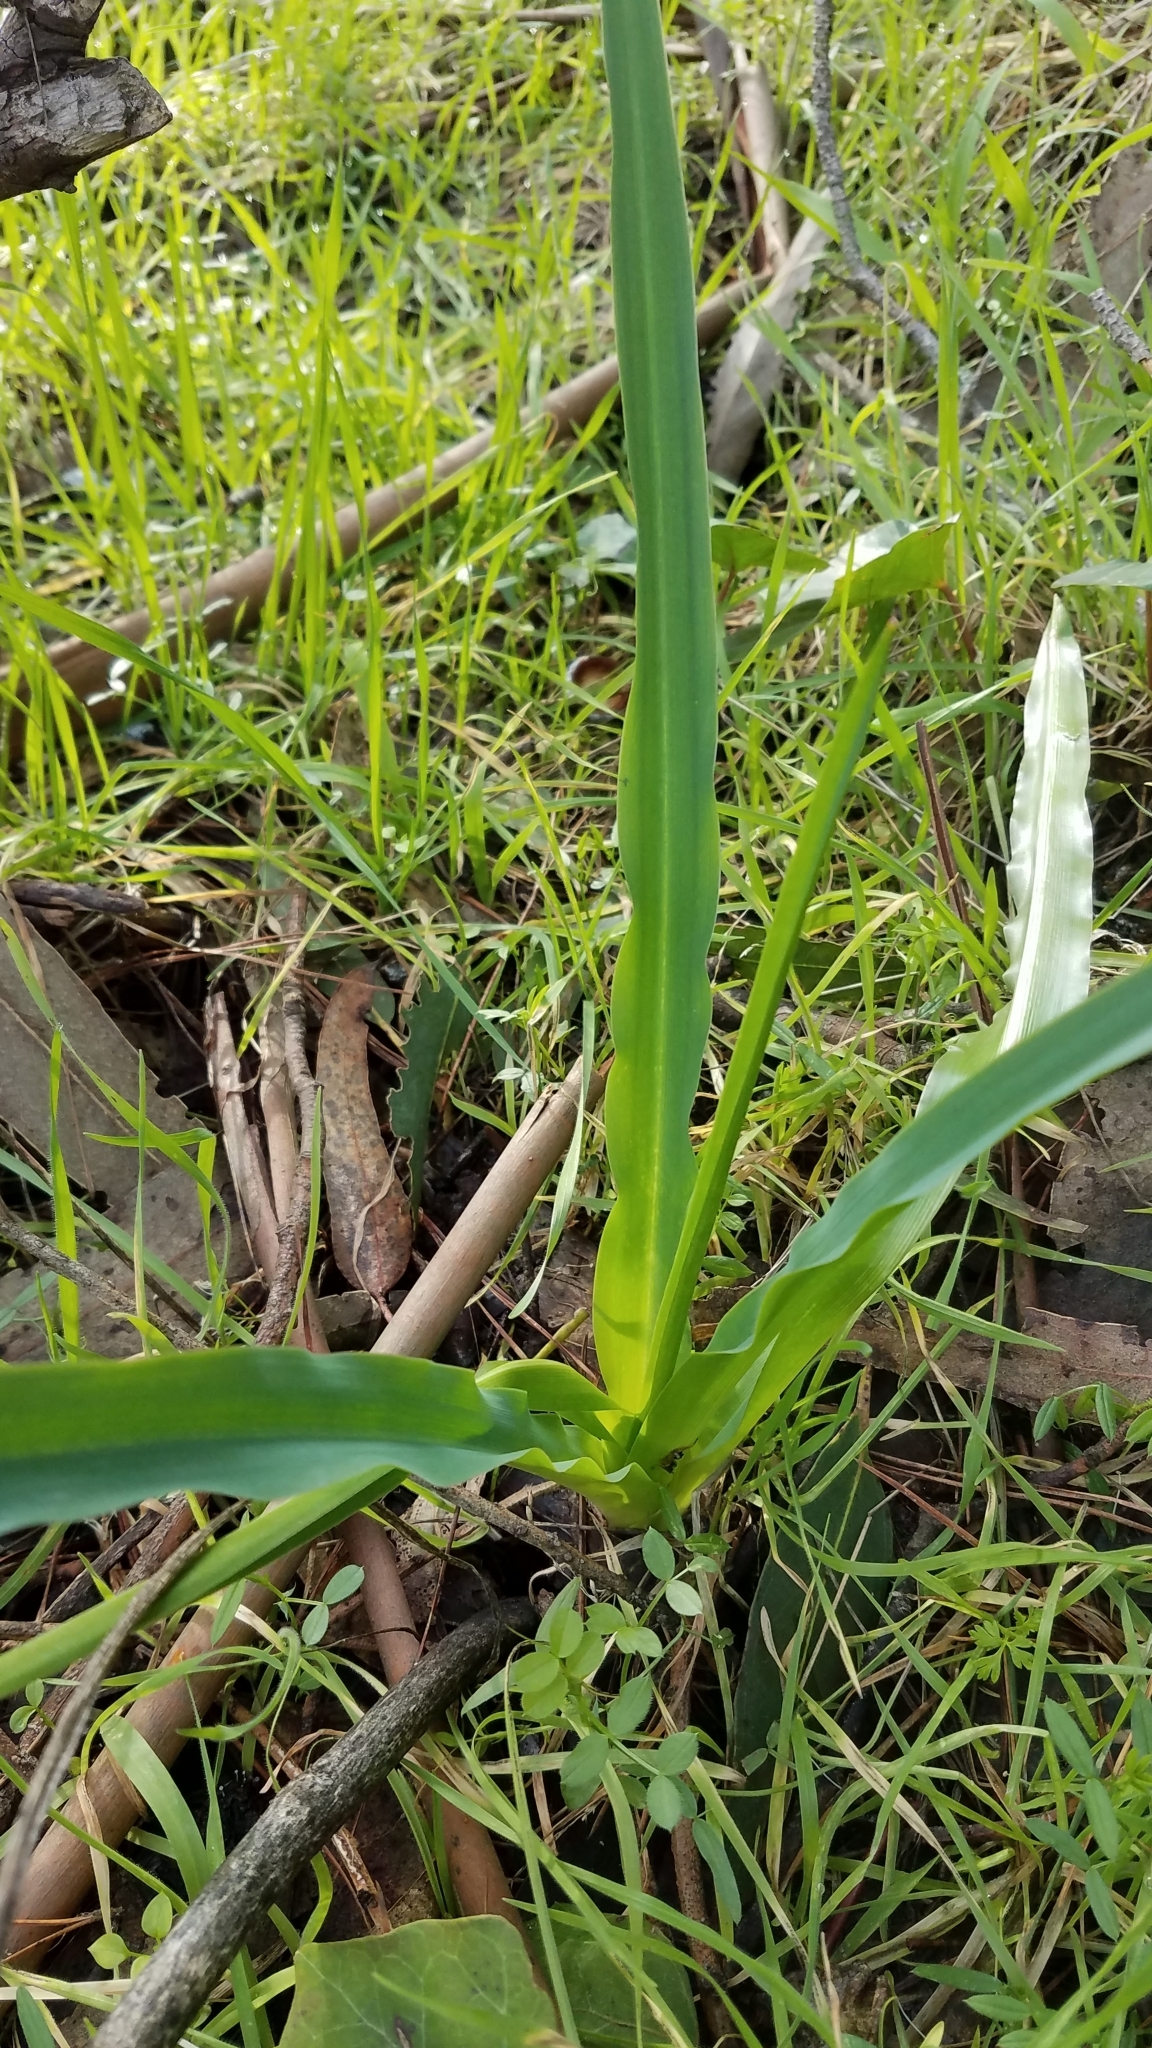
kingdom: Plantae
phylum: Tracheophyta
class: Liliopsida
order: Asparagales
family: Asparagaceae
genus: Chlorogalum
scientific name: Chlorogalum pomeridianum
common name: Amole
